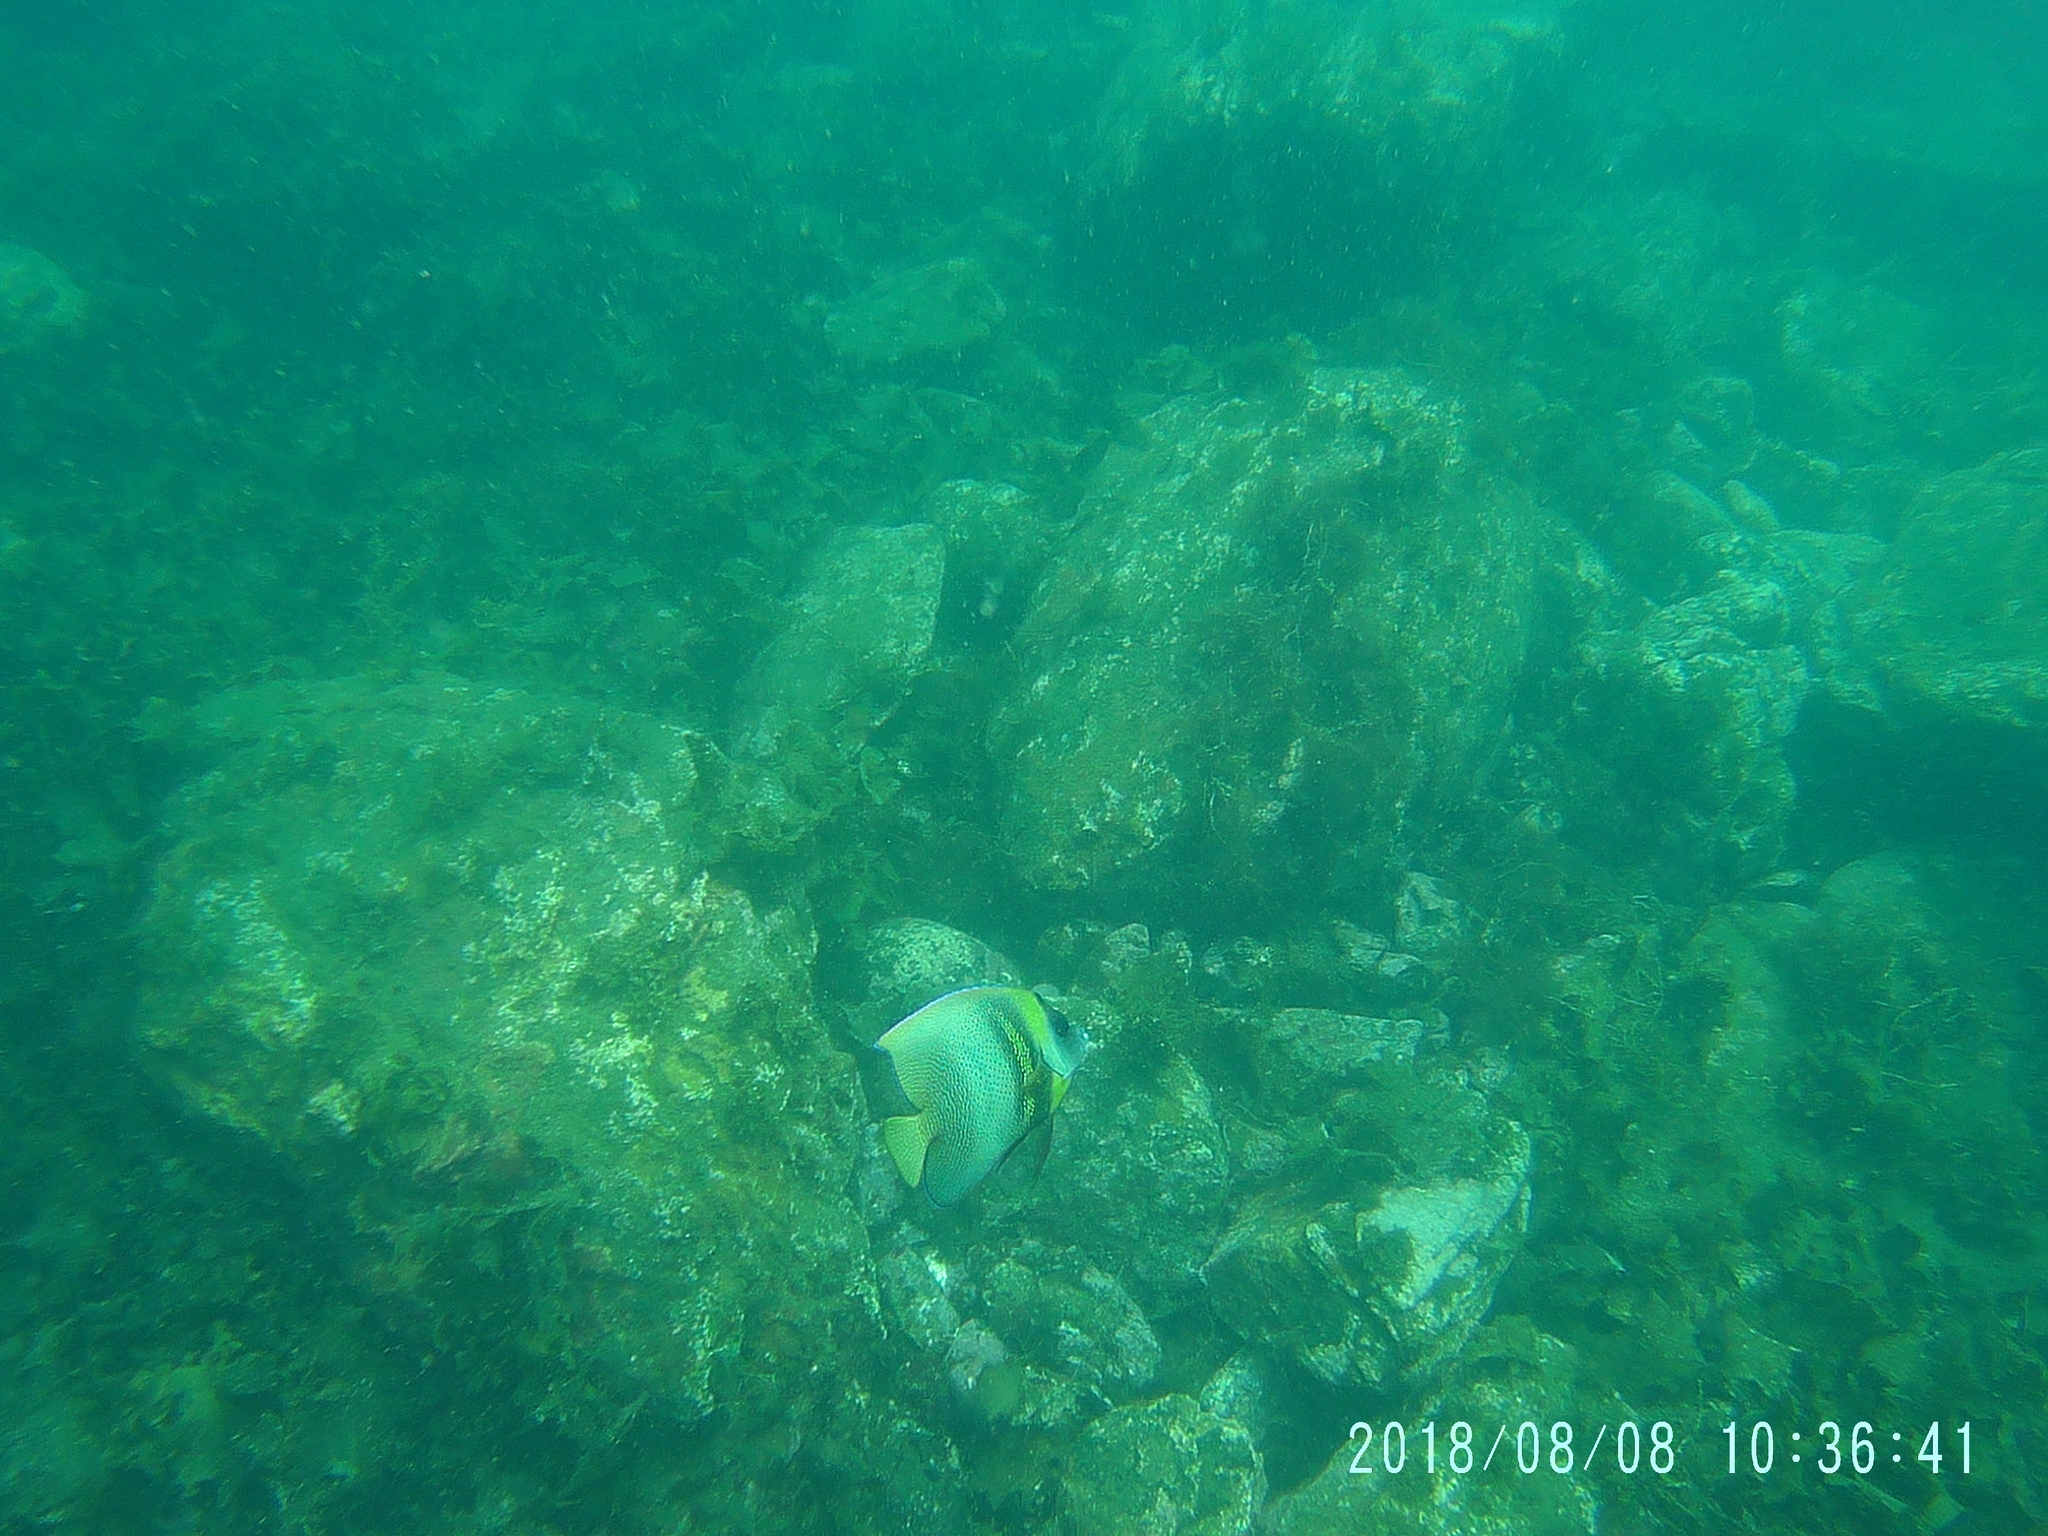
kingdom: Animalia
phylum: Chordata
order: Perciformes
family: Pomacanthidae
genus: Pomacanthus
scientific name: Pomacanthus zonipectus
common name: Cortez angelfish
